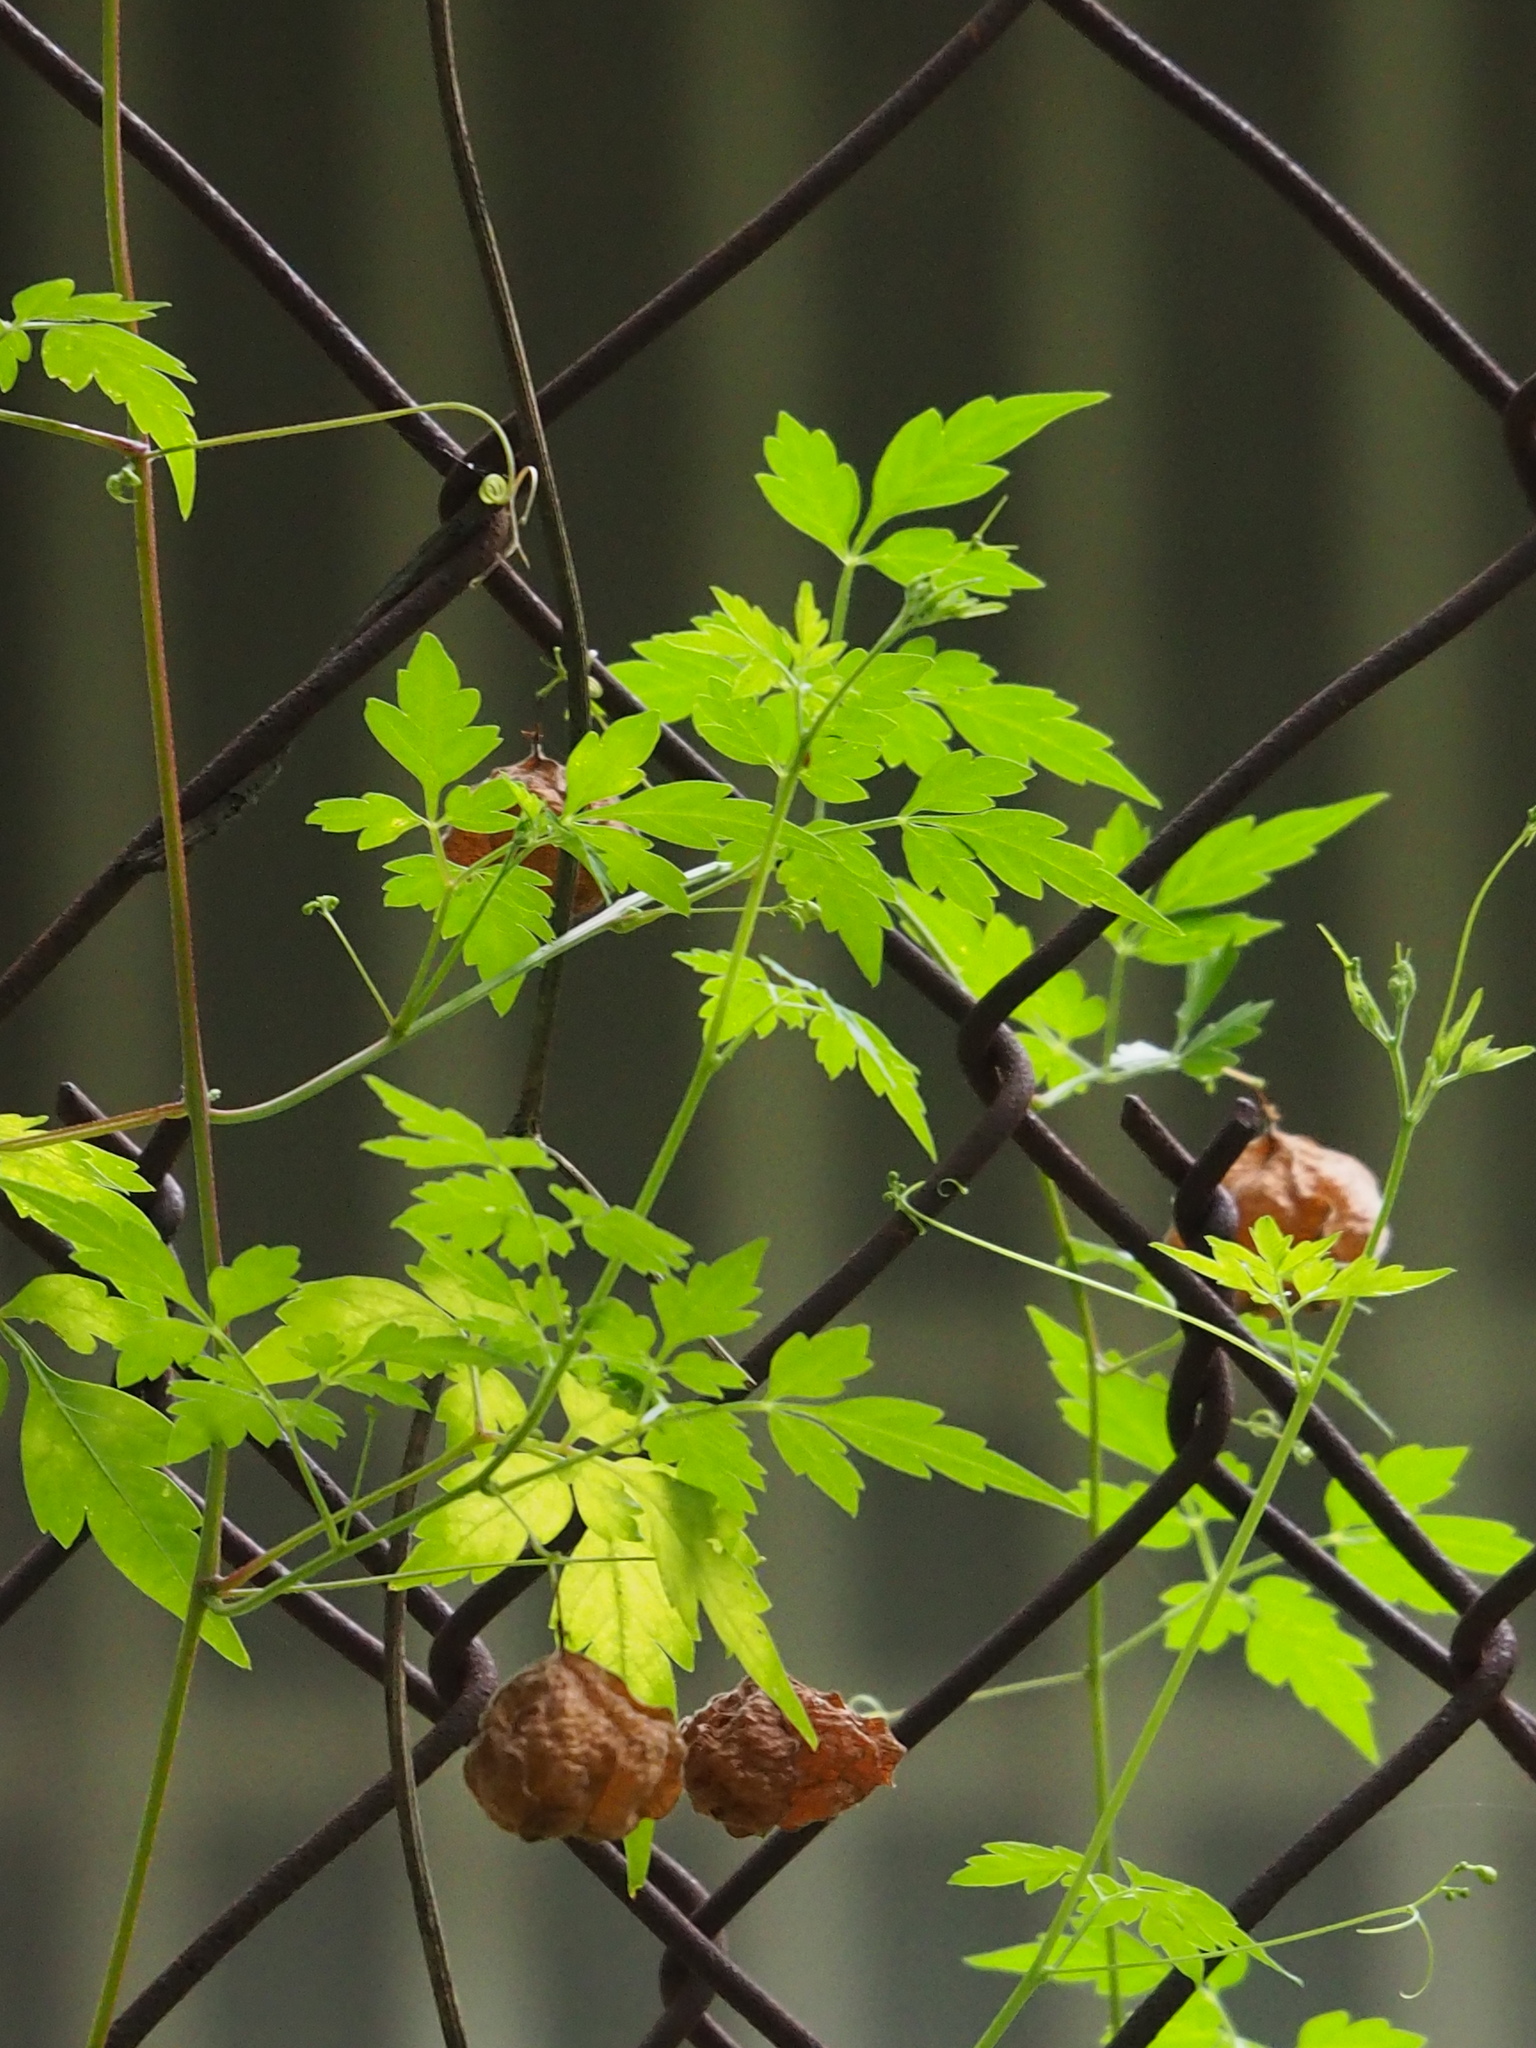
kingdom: Plantae
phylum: Tracheophyta
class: Magnoliopsida
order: Sapindales
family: Sapindaceae
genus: Cardiospermum
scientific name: Cardiospermum halicacabum
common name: Balloon vine
